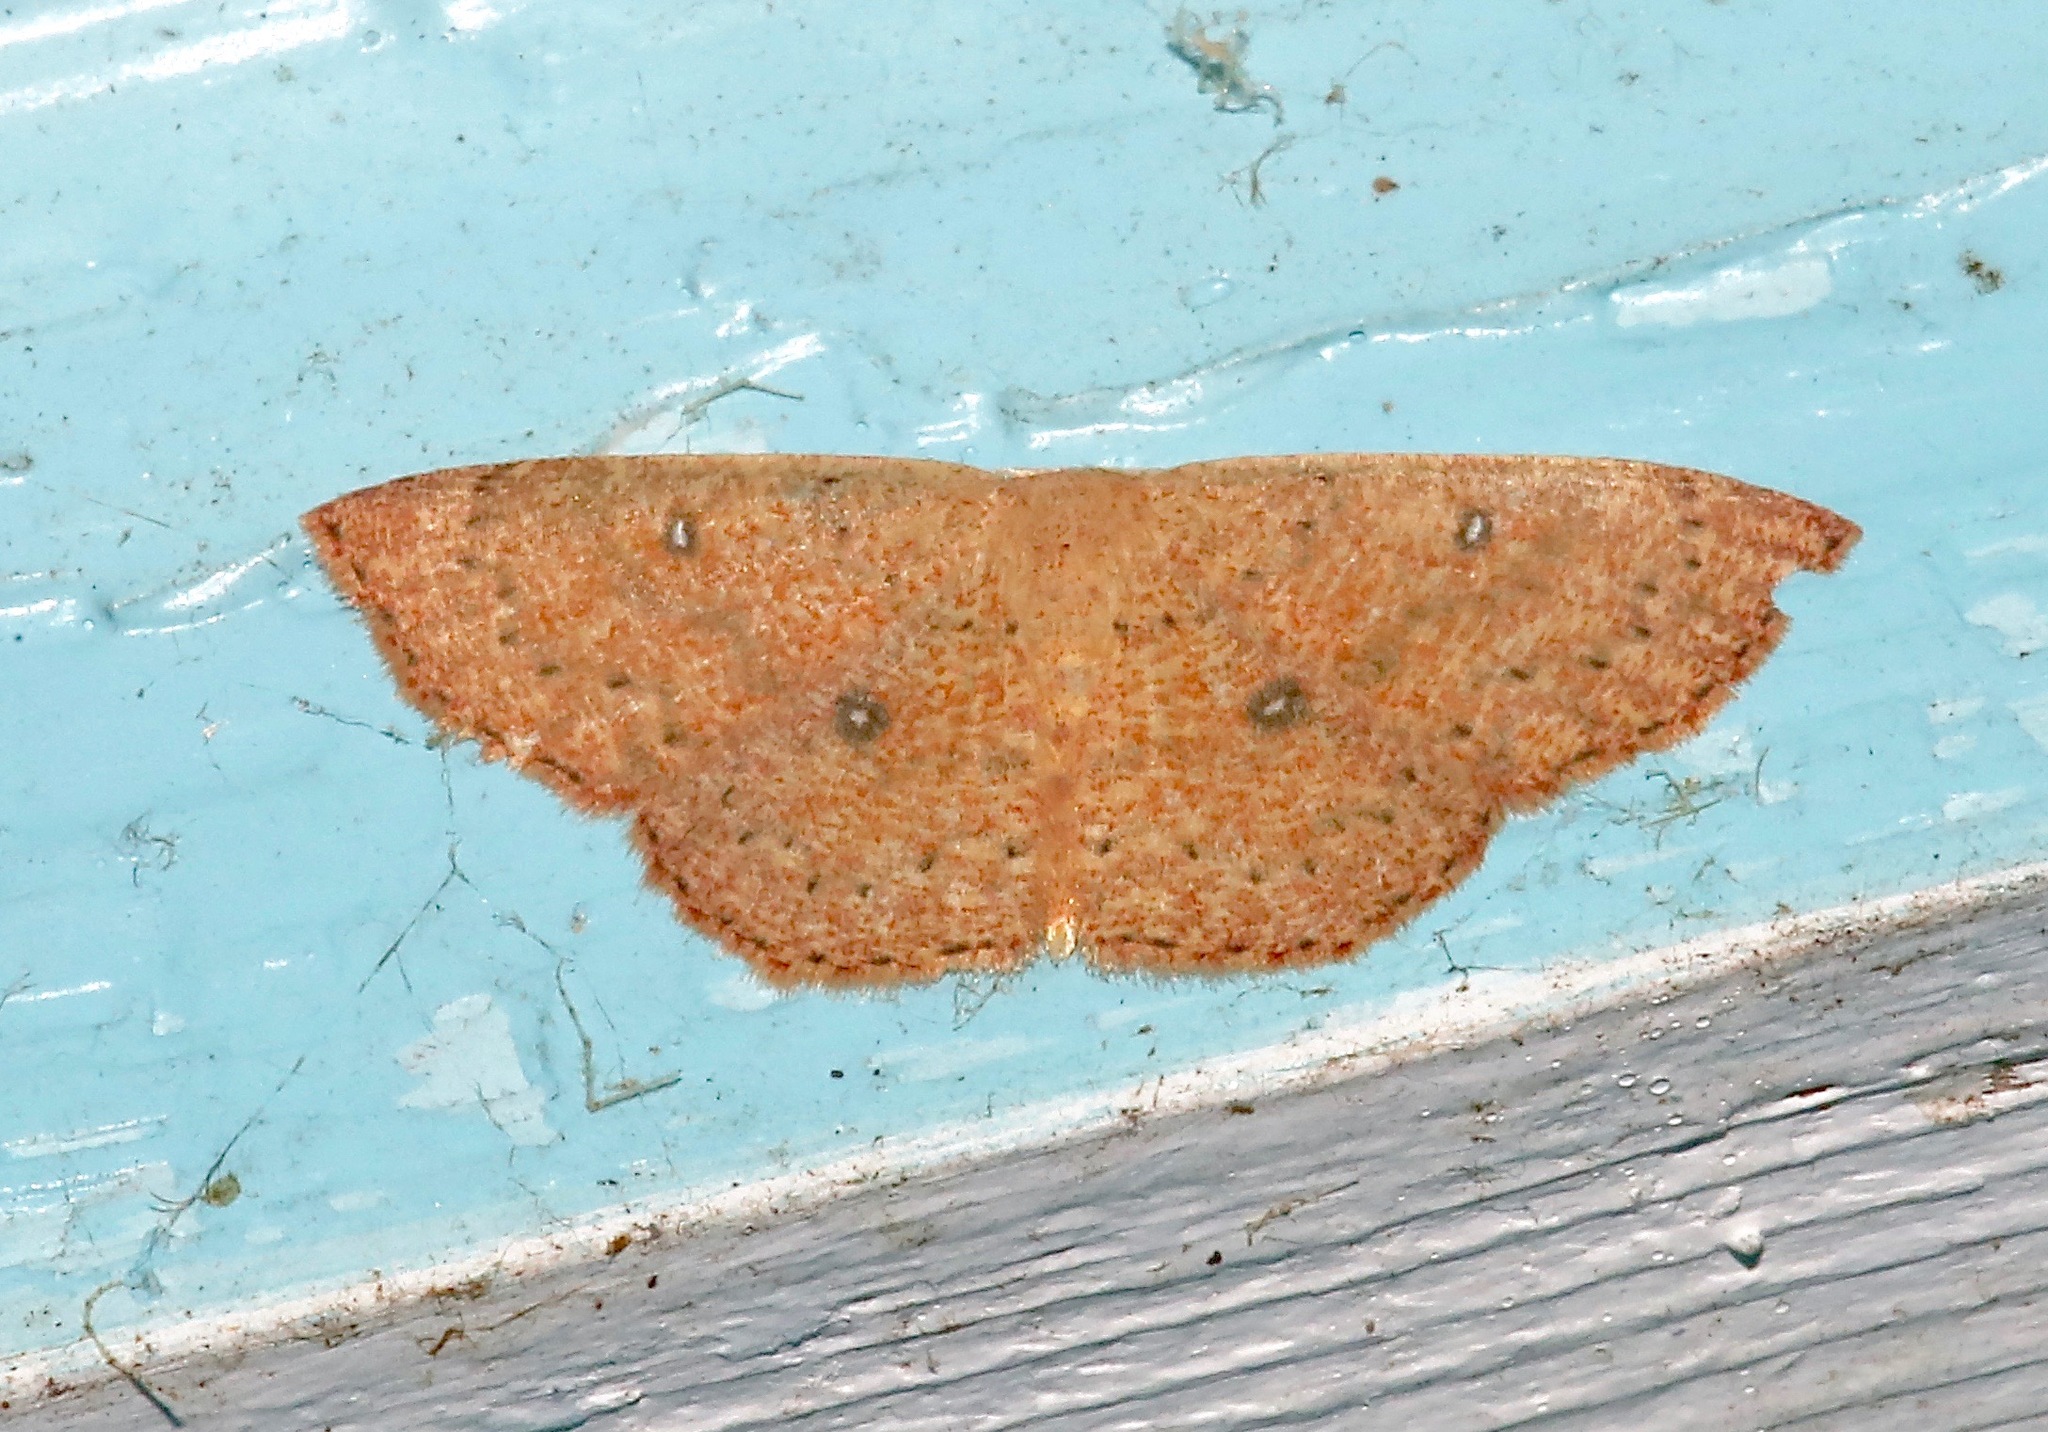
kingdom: Animalia
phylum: Arthropoda
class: Insecta
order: Lepidoptera
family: Geometridae
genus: Cyclophora
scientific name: Cyclophora packardi
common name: Packard's wave
